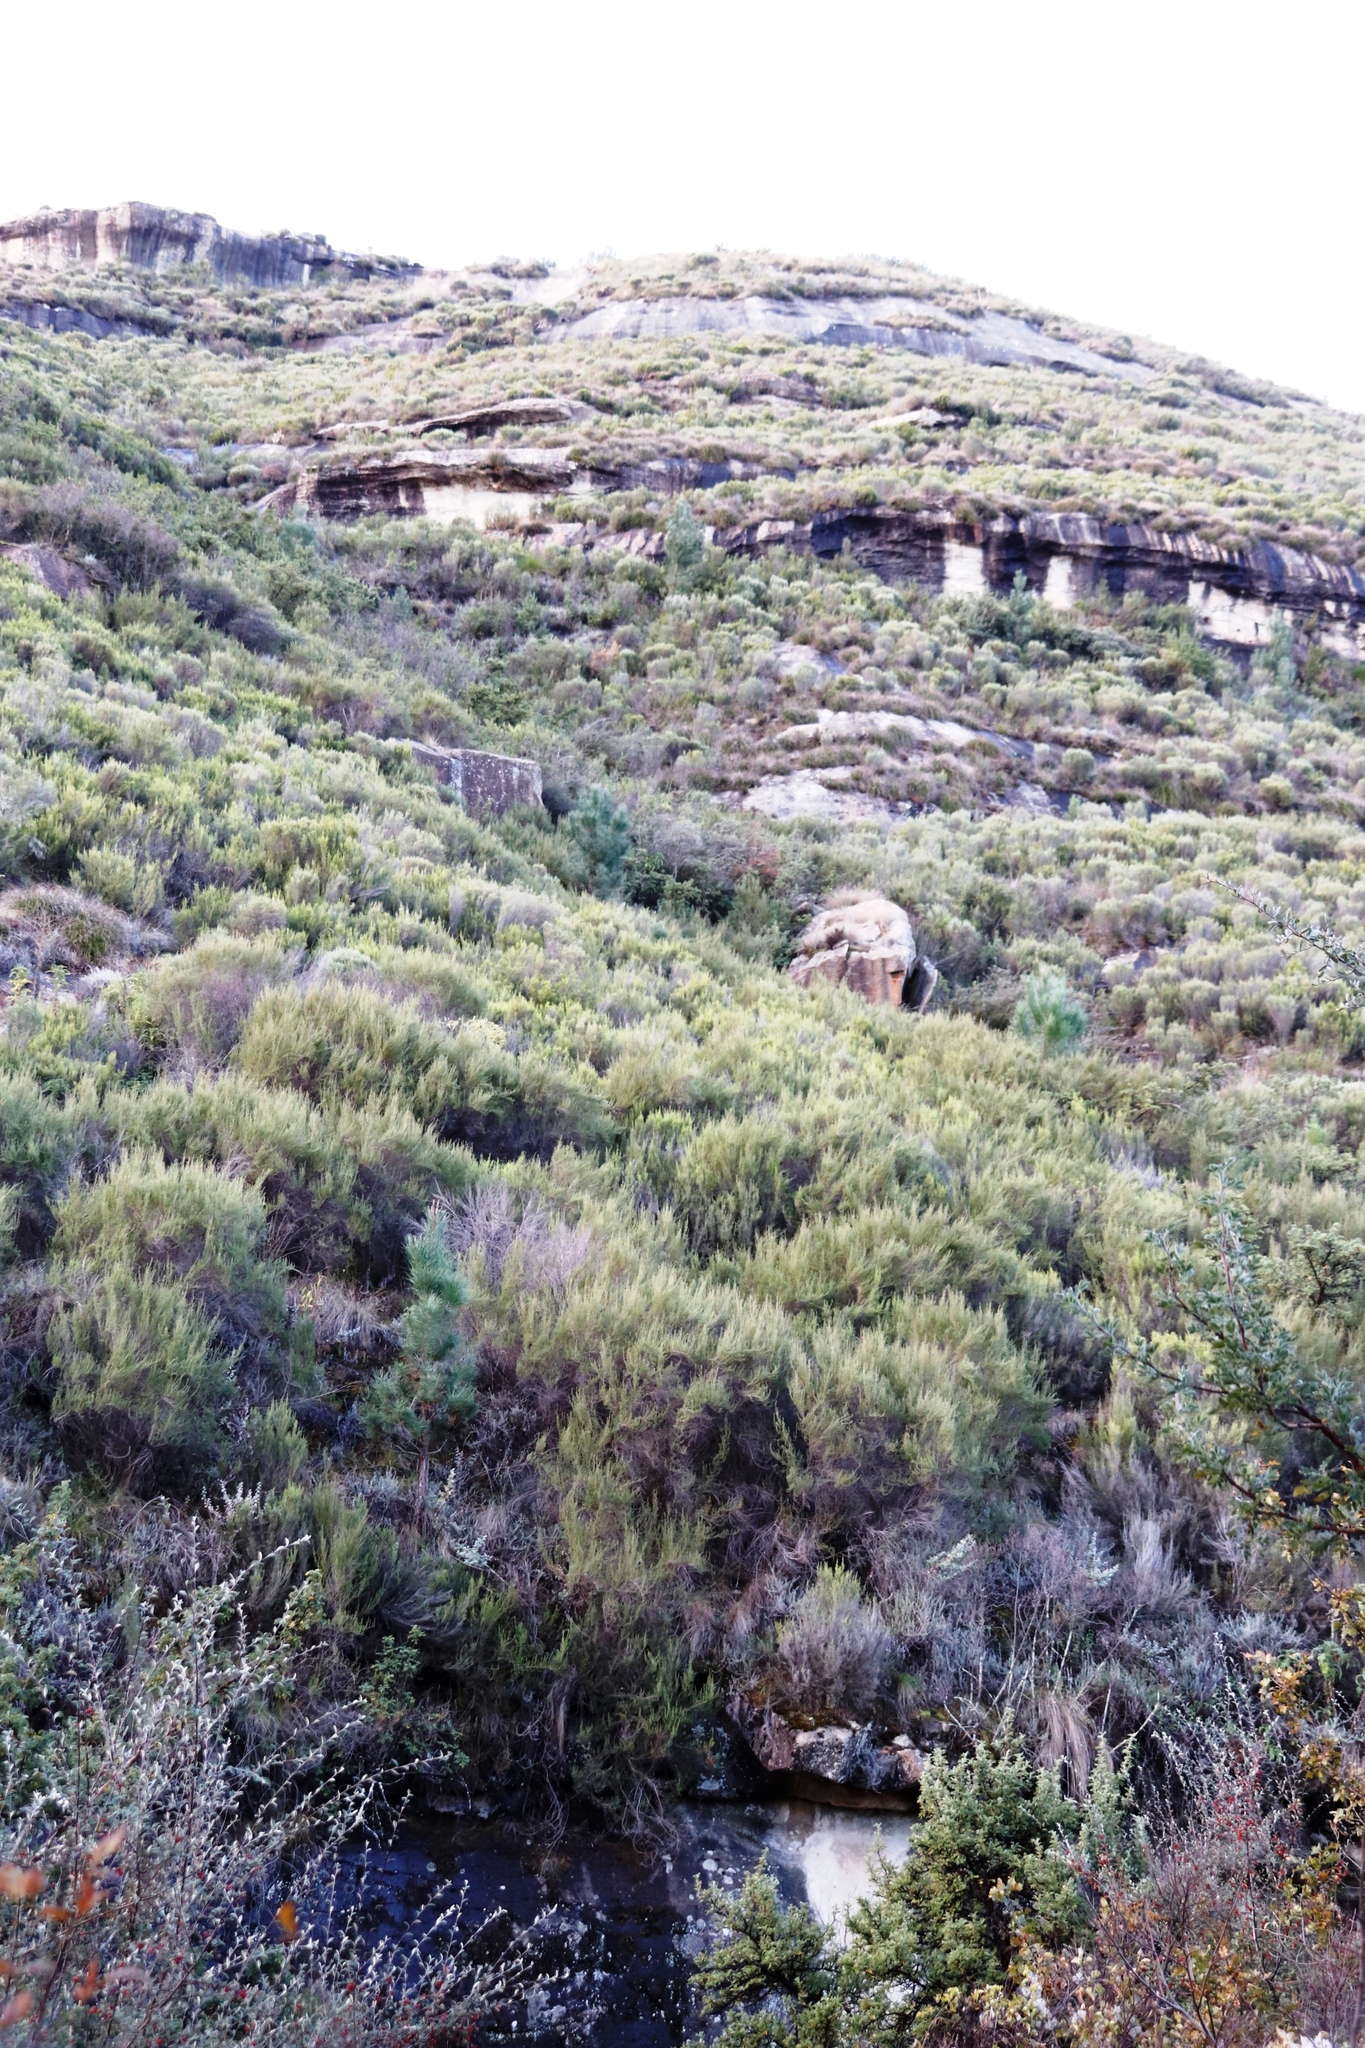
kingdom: Plantae
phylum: Tracheophyta
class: Magnoliopsida
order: Ericales
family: Ericaceae
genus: Erica
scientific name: Erica maesta
